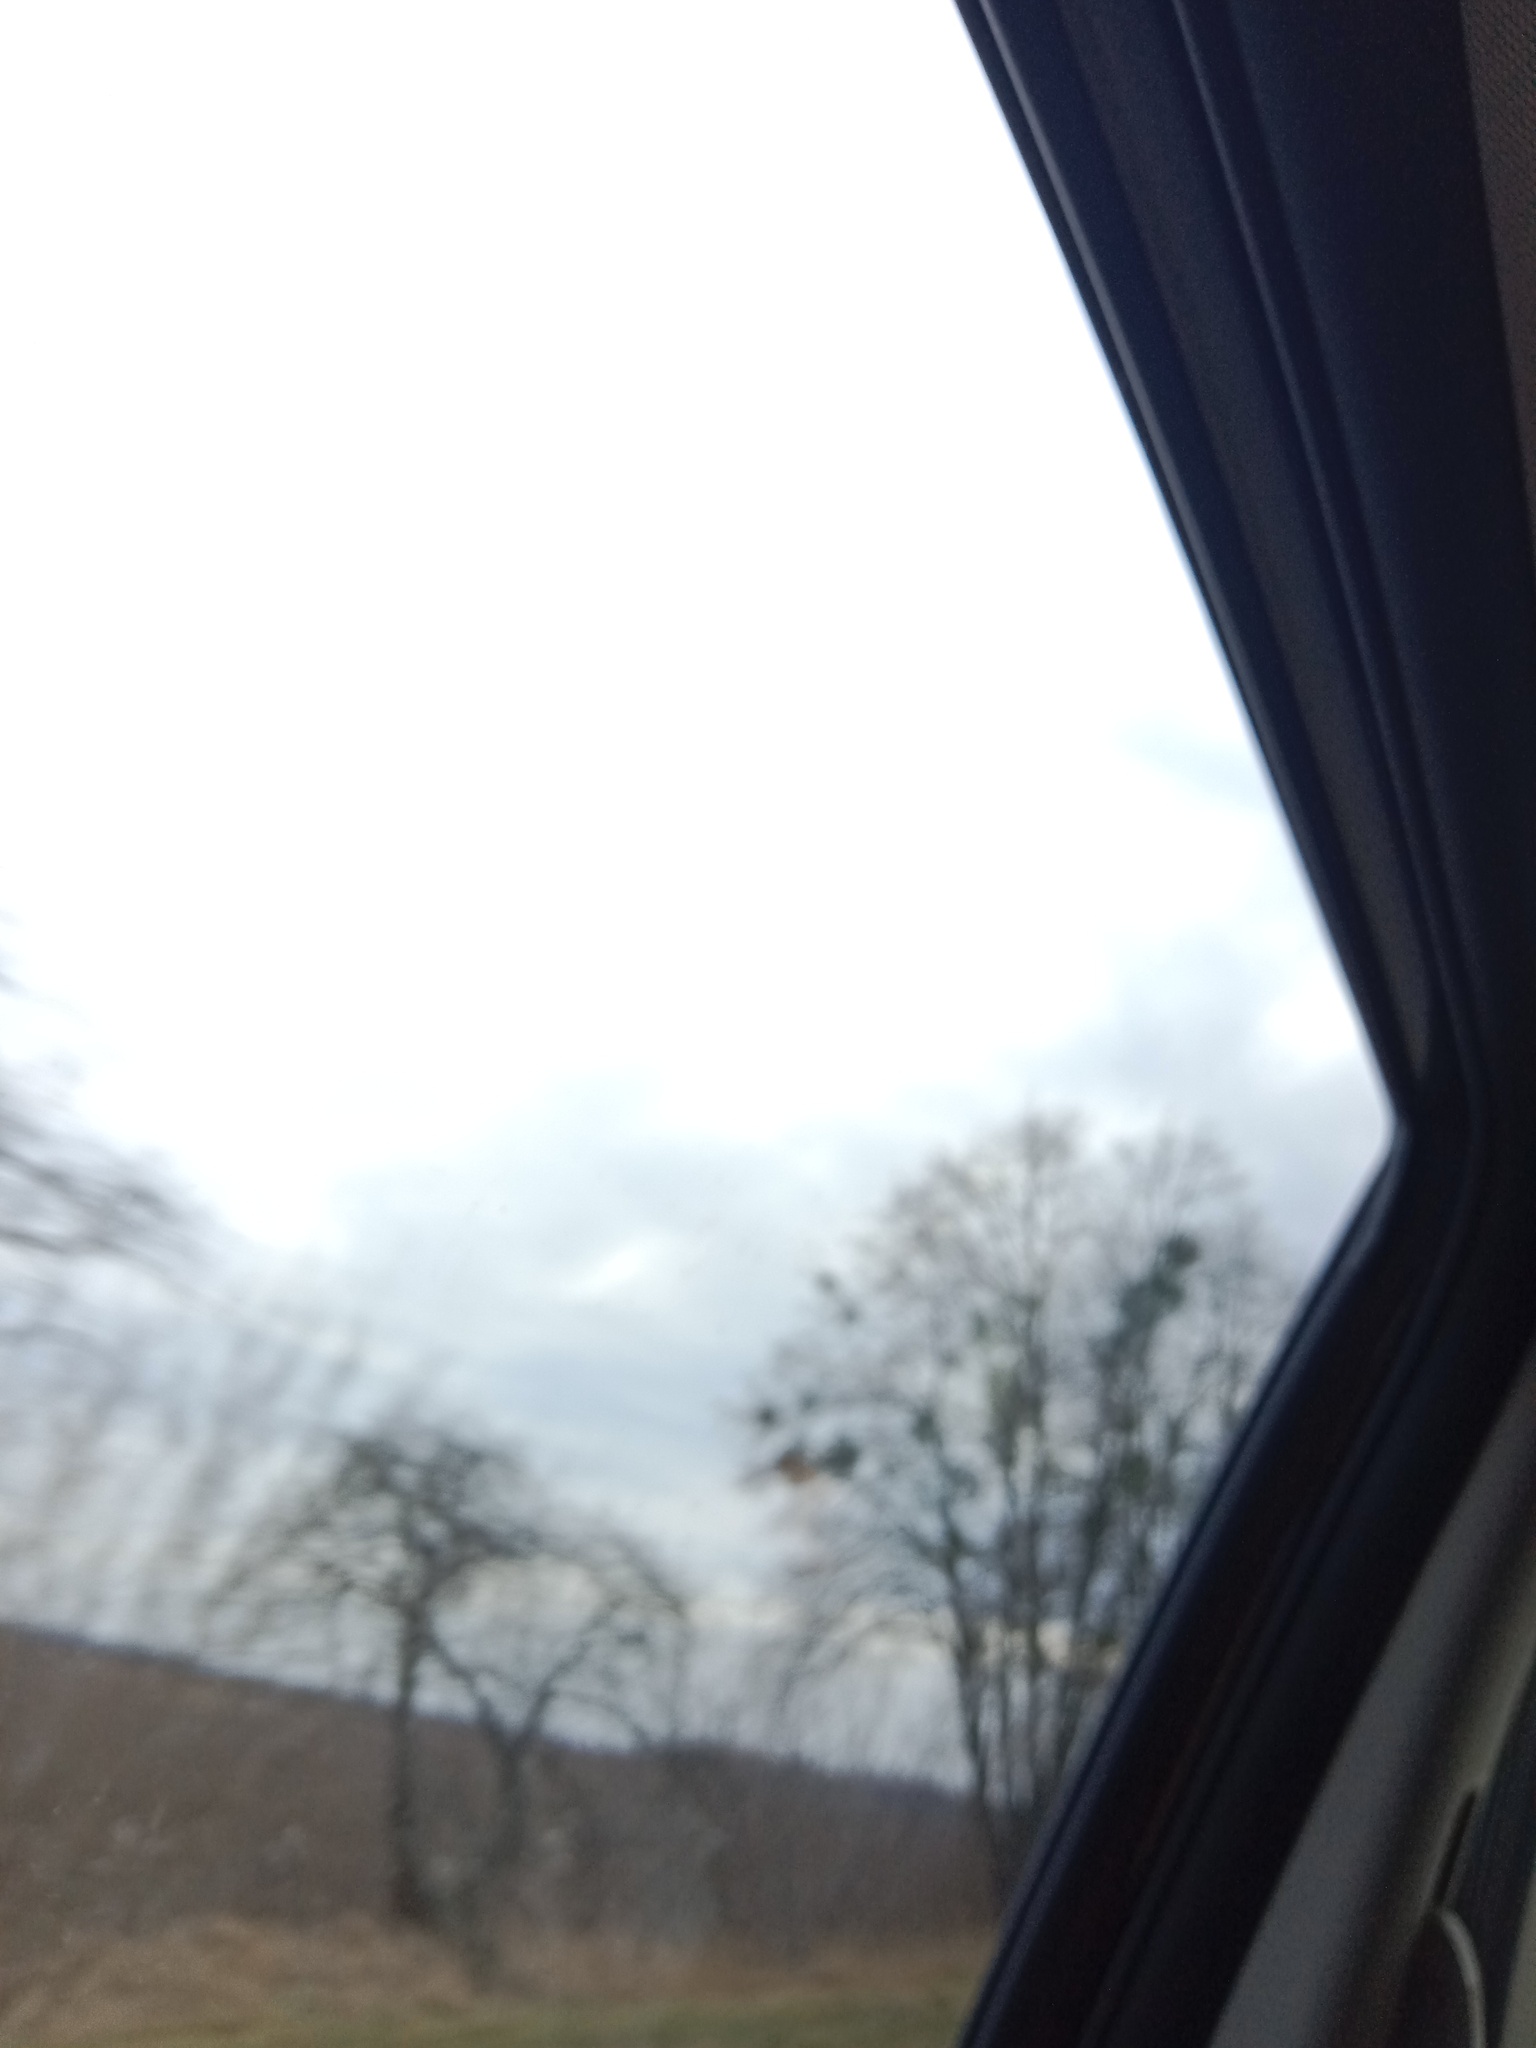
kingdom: Plantae
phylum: Tracheophyta
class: Magnoliopsida
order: Santalales
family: Viscaceae
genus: Viscum
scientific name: Viscum album
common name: Mistletoe
